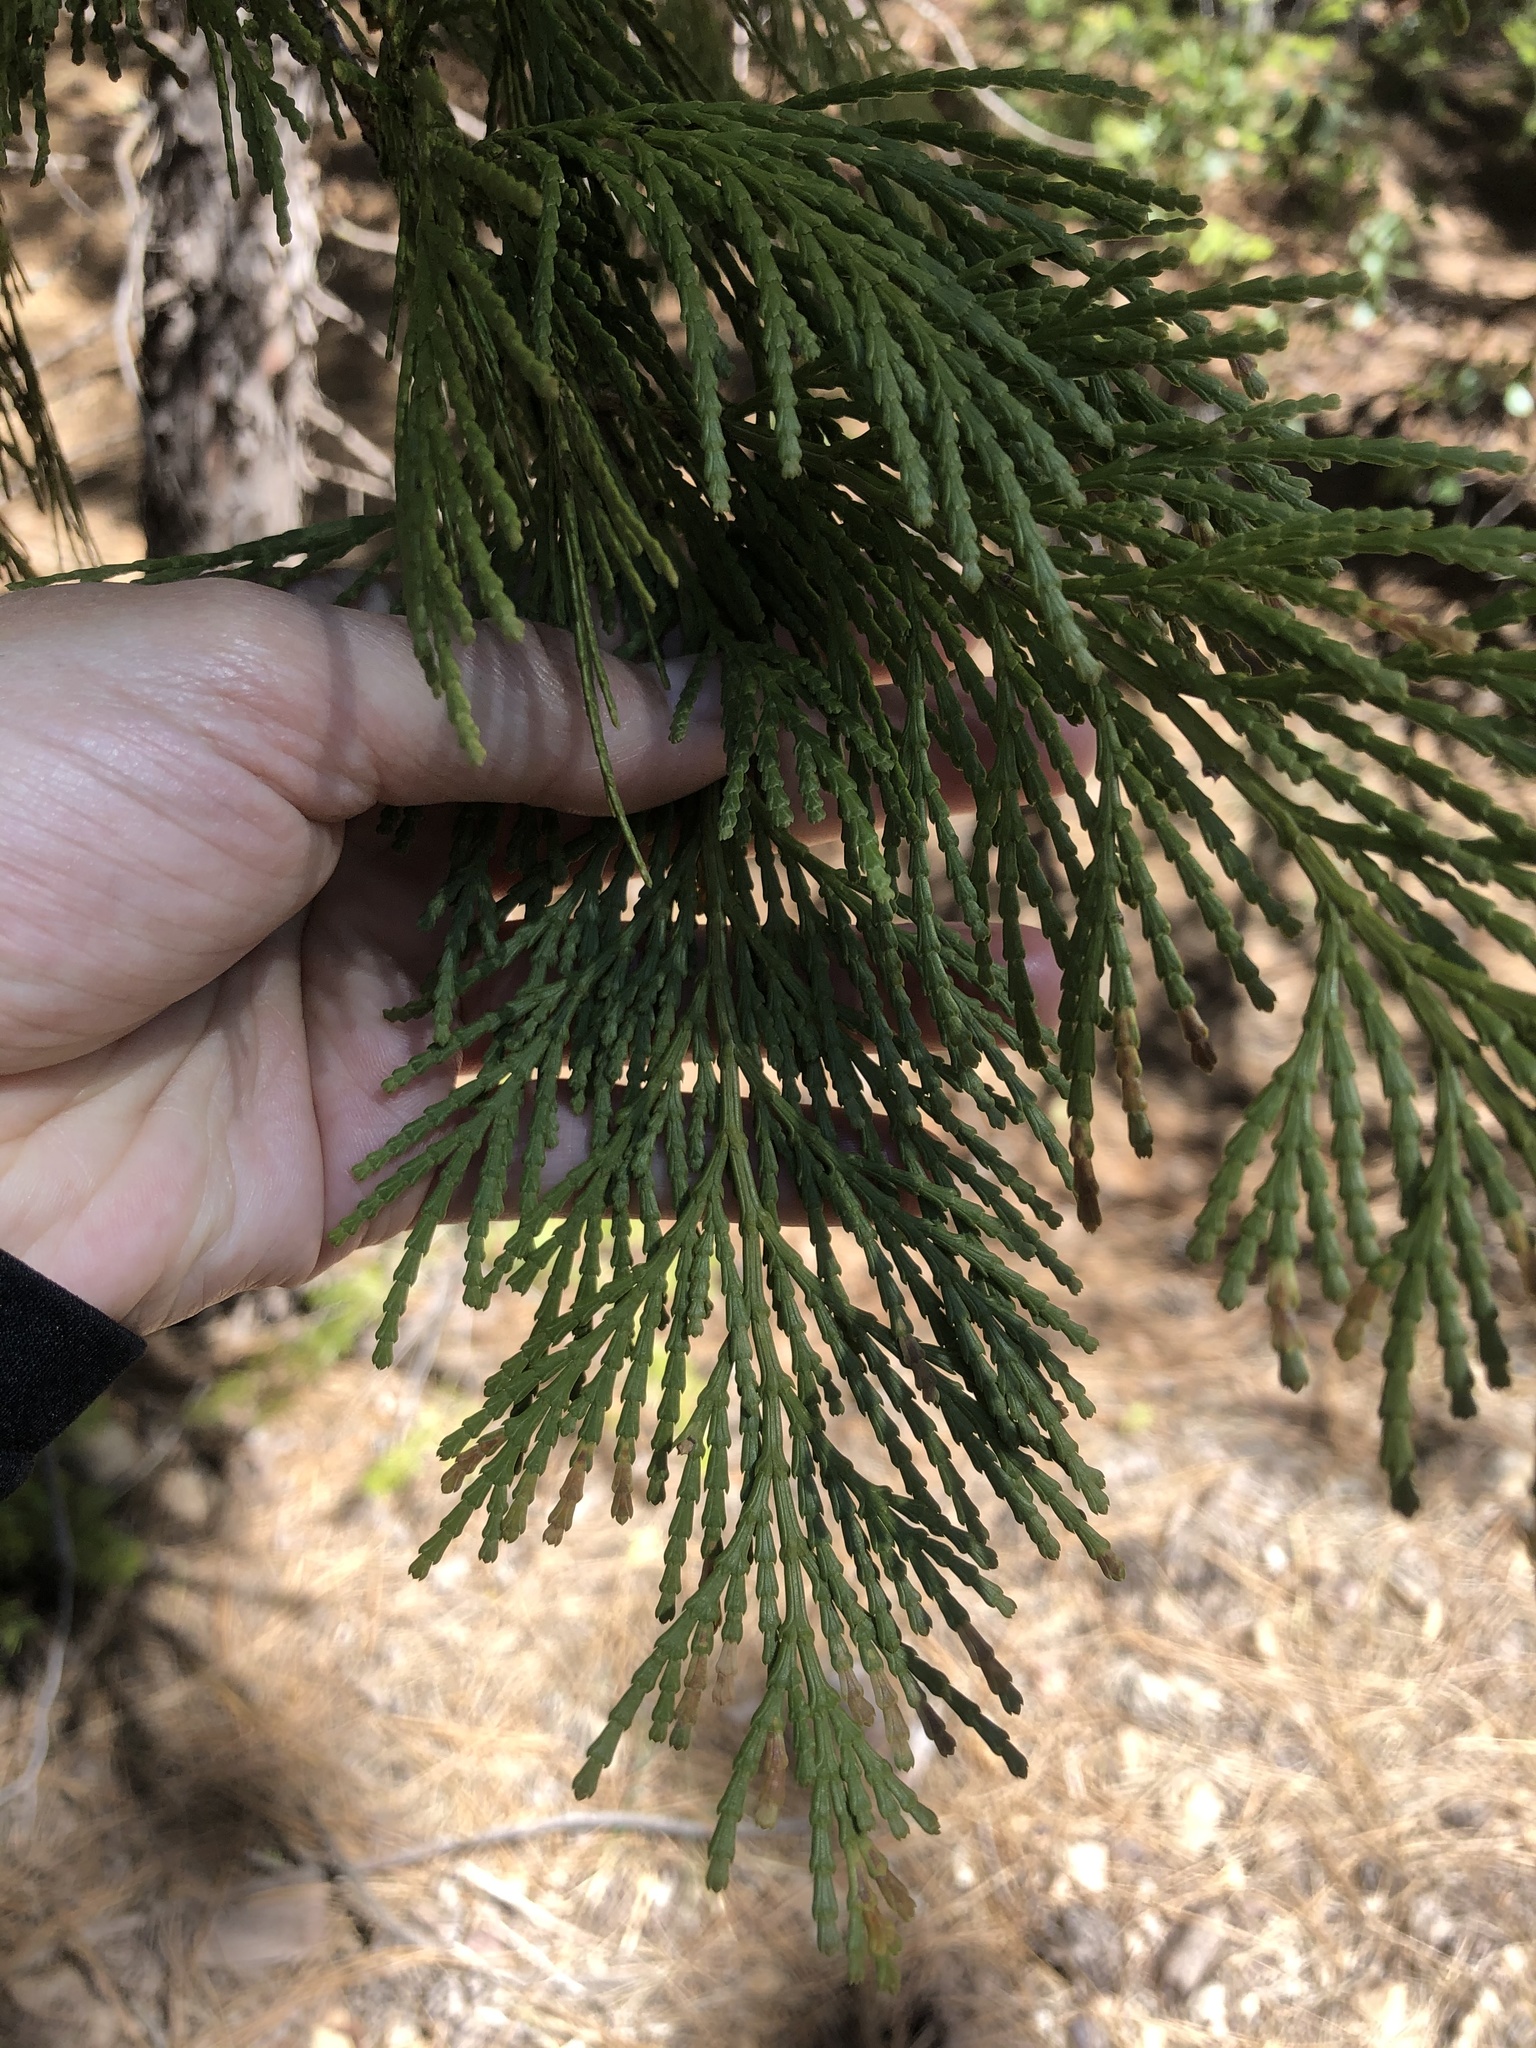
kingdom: Plantae
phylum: Tracheophyta
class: Pinopsida
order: Pinales
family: Cupressaceae
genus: Calocedrus
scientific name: Calocedrus decurrens
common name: Californian incense-cedar
